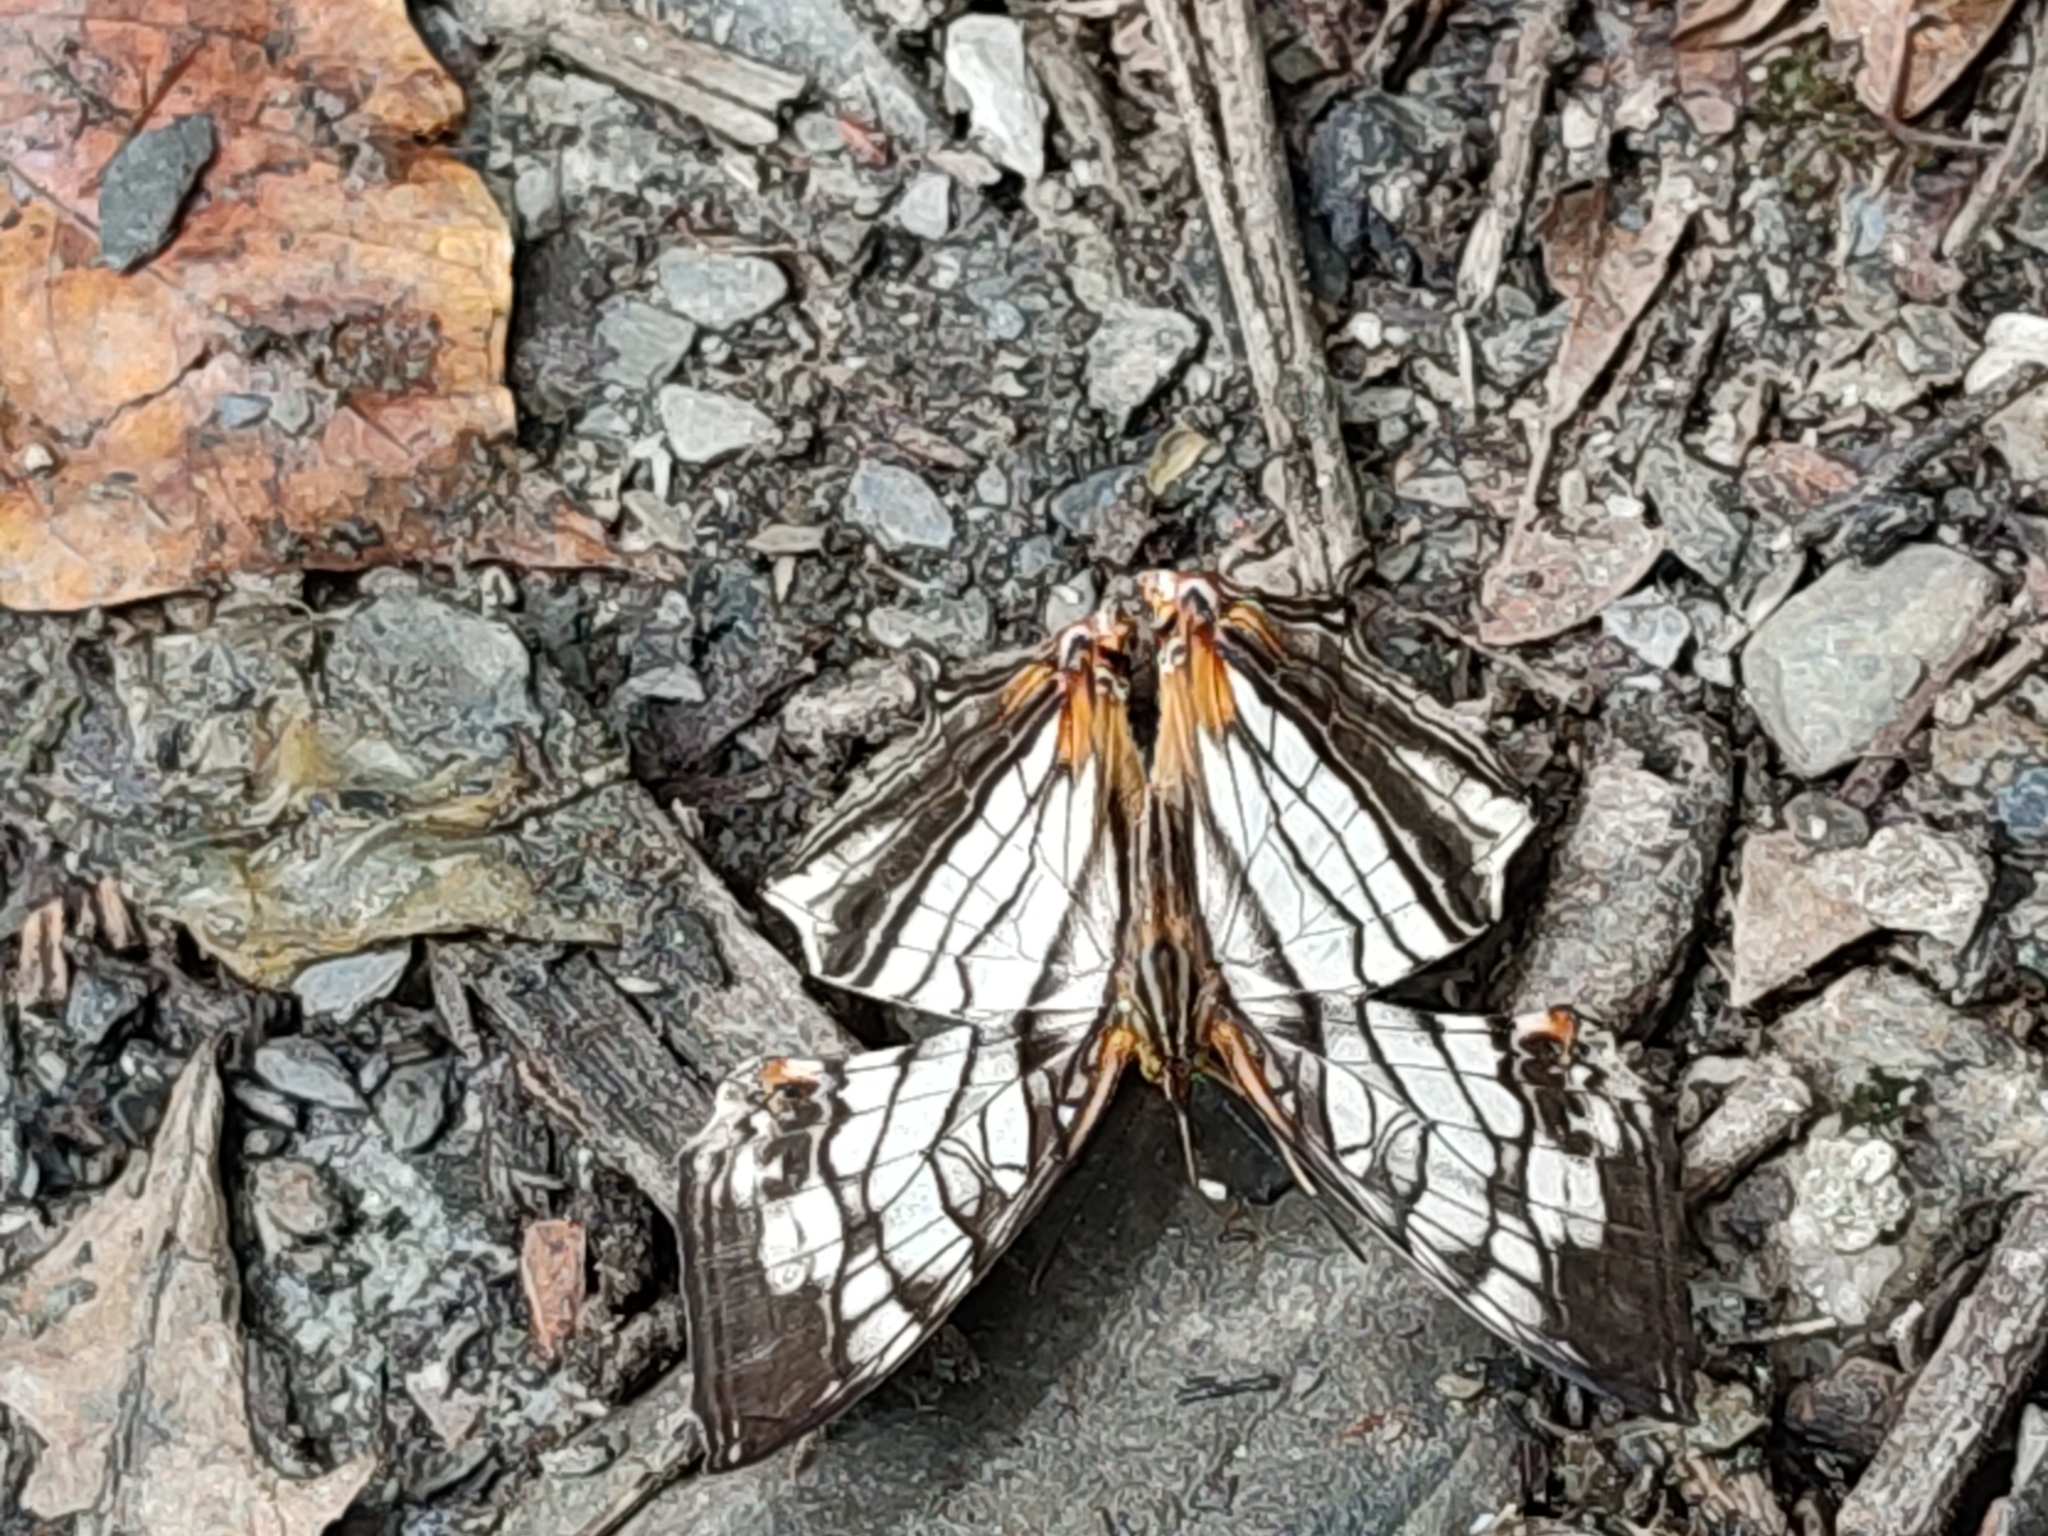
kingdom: Animalia
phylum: Arthropoda
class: Insecta
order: Lepidoptera
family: Nymphalidae
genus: Cyrestis
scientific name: Cyrestis thyodamas
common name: Common mapwing
